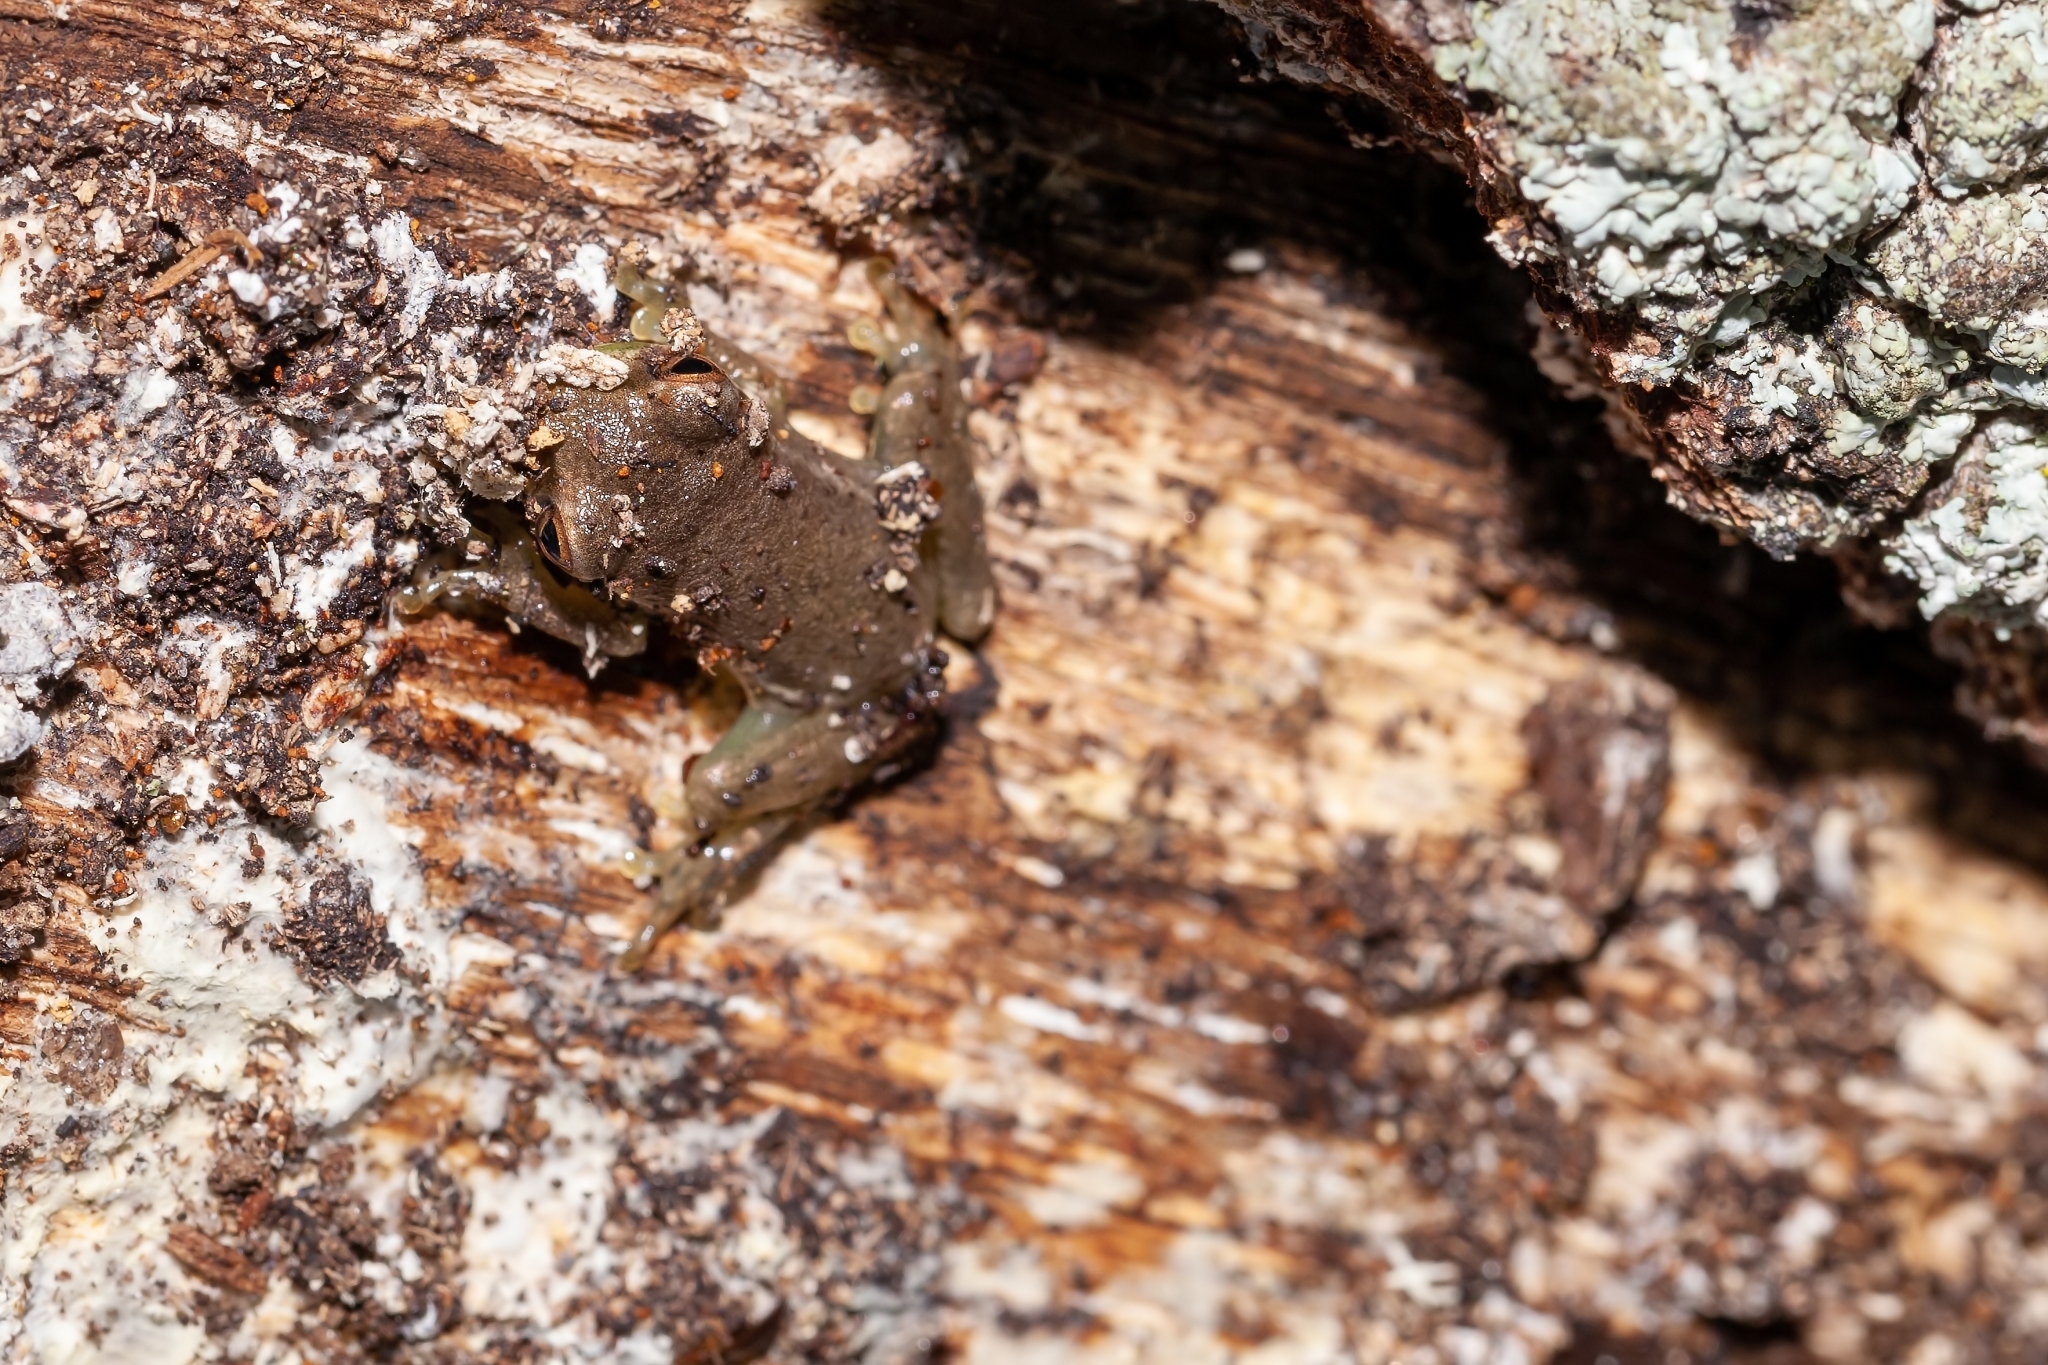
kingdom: Animalia
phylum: Chordata
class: Amphibia
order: Anura
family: Hylidae
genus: Osteopilus
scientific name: Osteopilus septentrionalis
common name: Cuban treefrog
